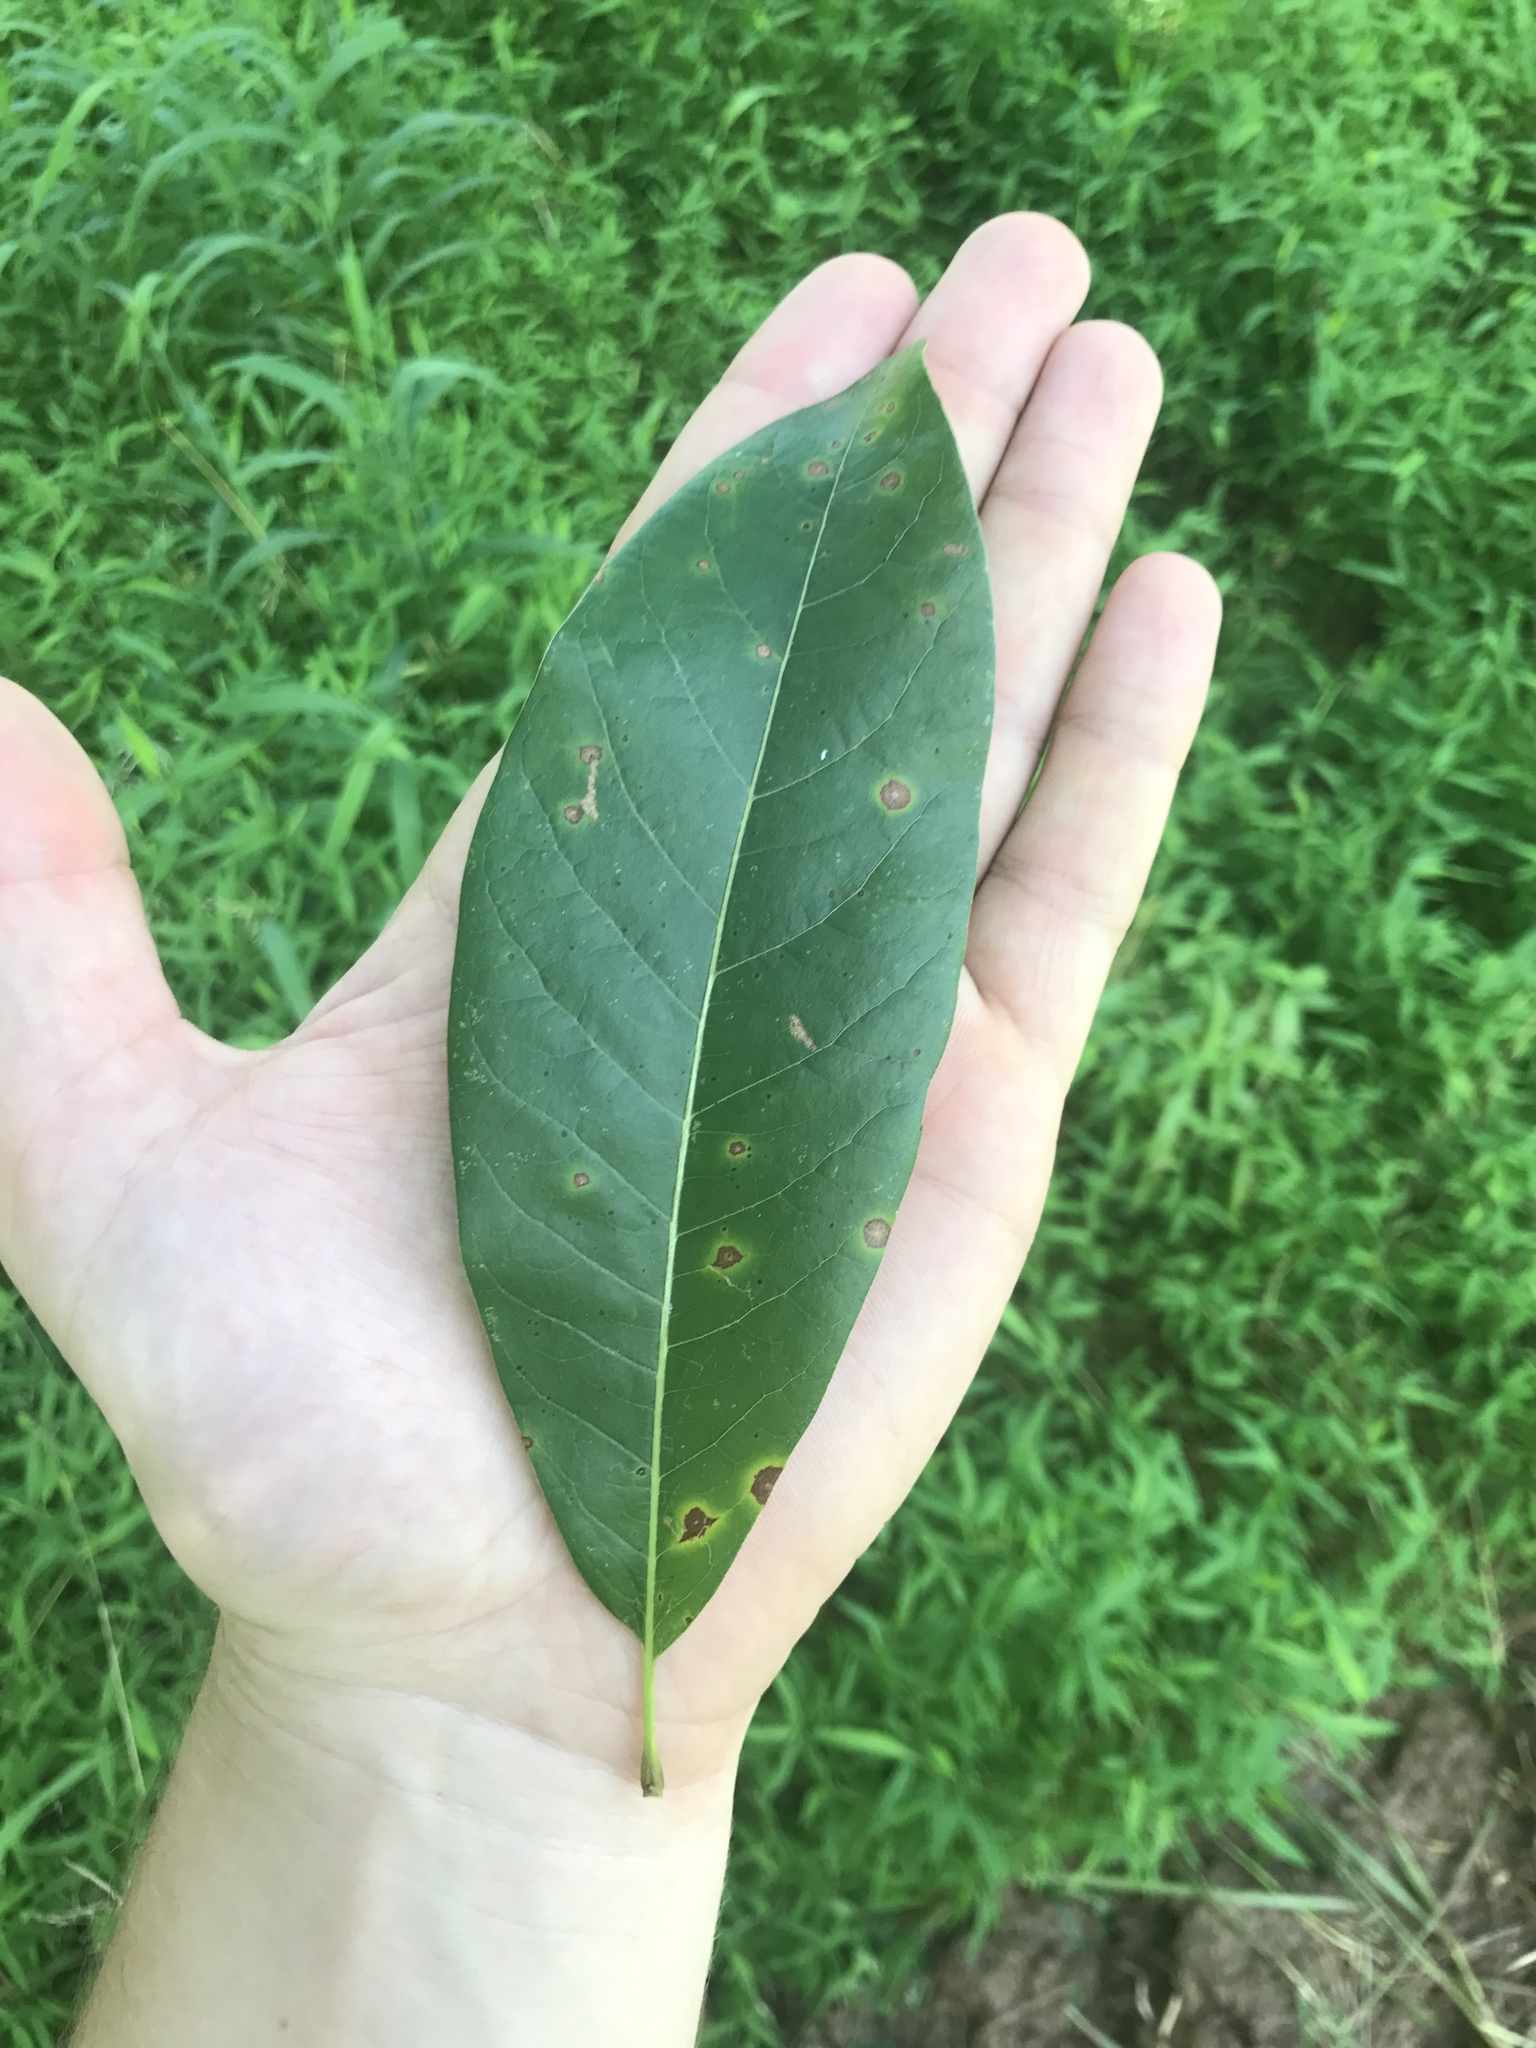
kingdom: Plantae
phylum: Tracheophyta
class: Magnoliopsida
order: Fagales
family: Fagaceae
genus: Quercus
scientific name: Quercus imbricaria
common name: Shingle oak
